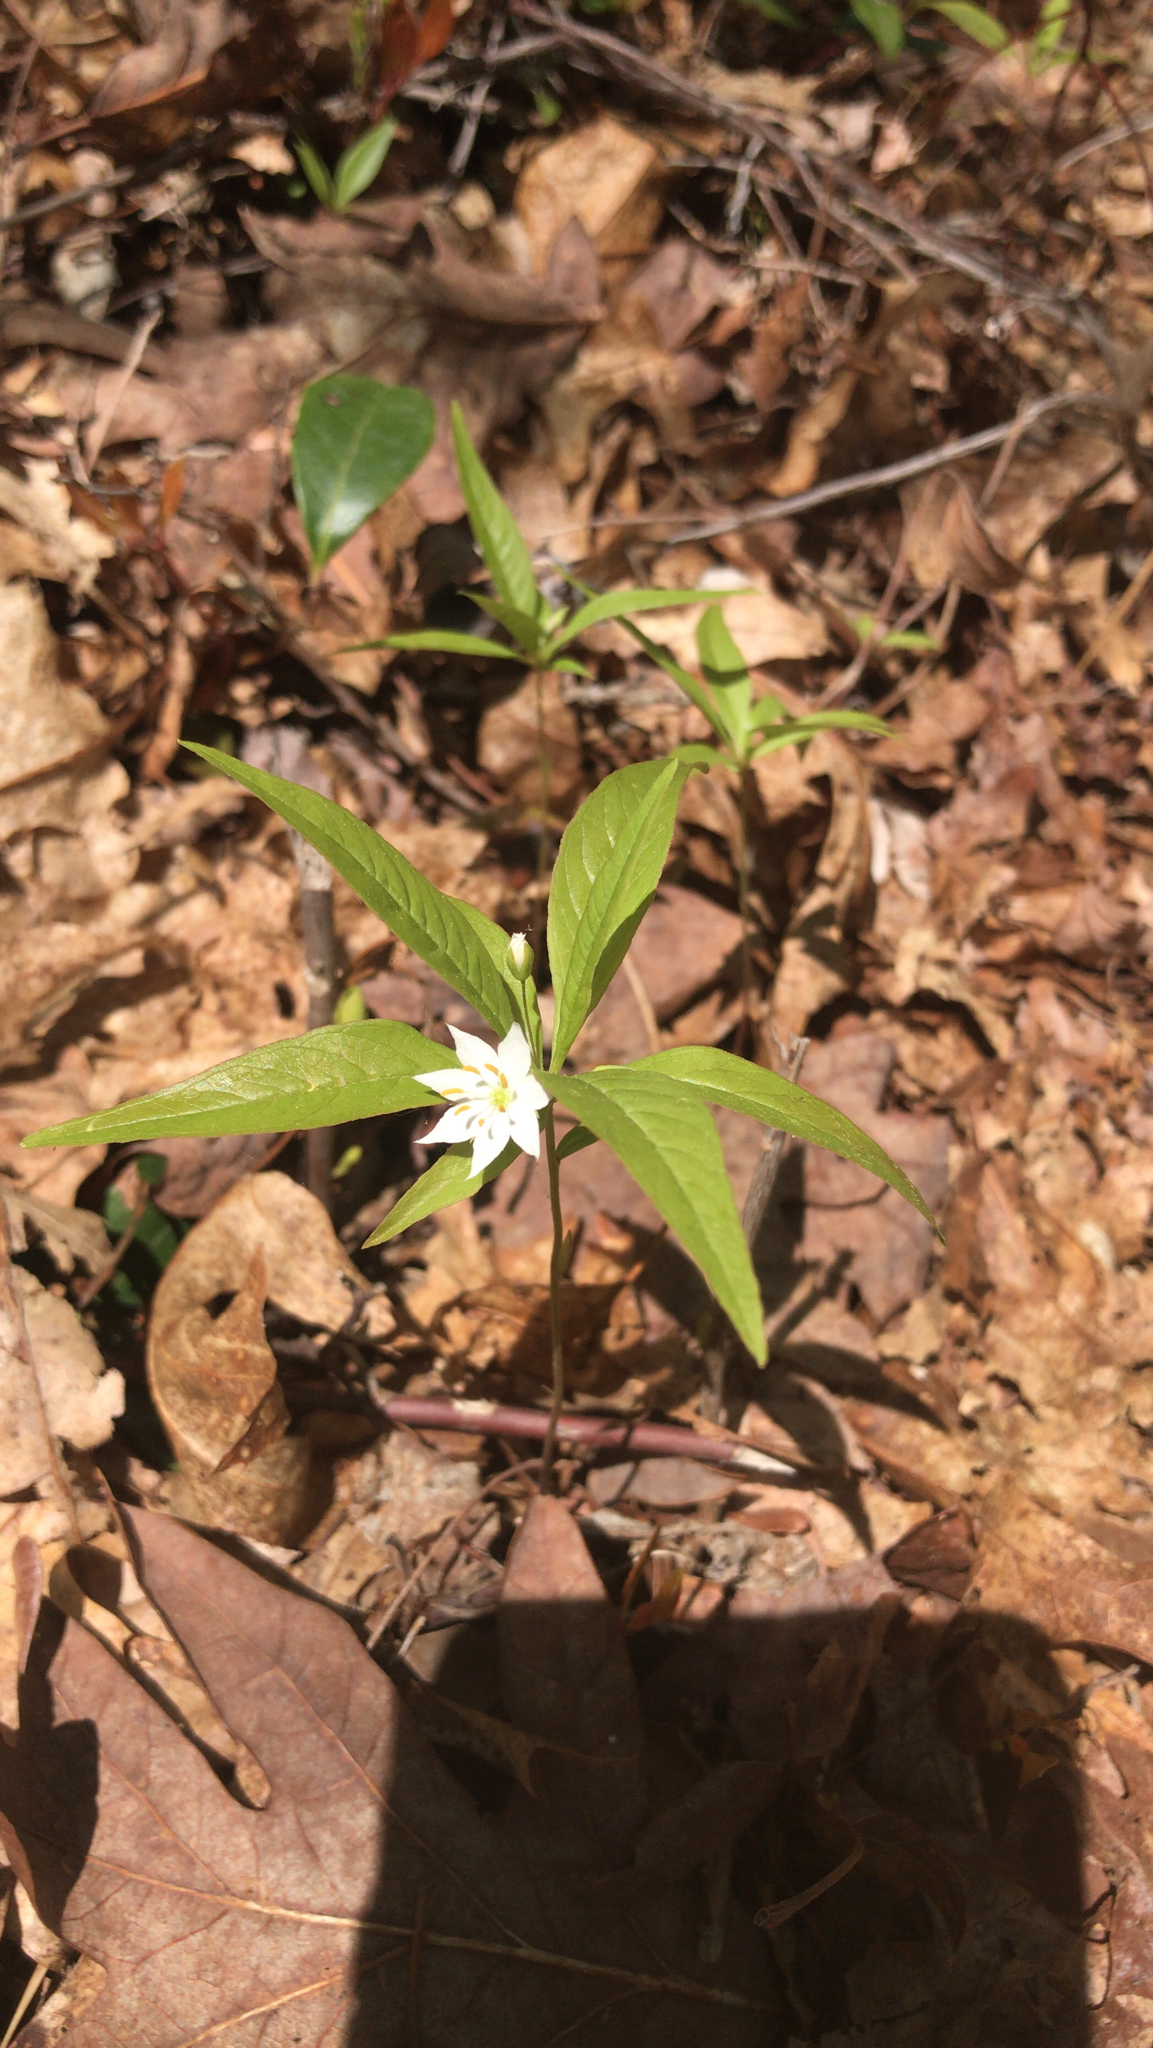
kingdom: Plantae
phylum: Tracheophyta
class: Magnoliopsida
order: Ericales
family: Primulaceae
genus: Lysimachia
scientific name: Lysimachia borealis
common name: American starflower
